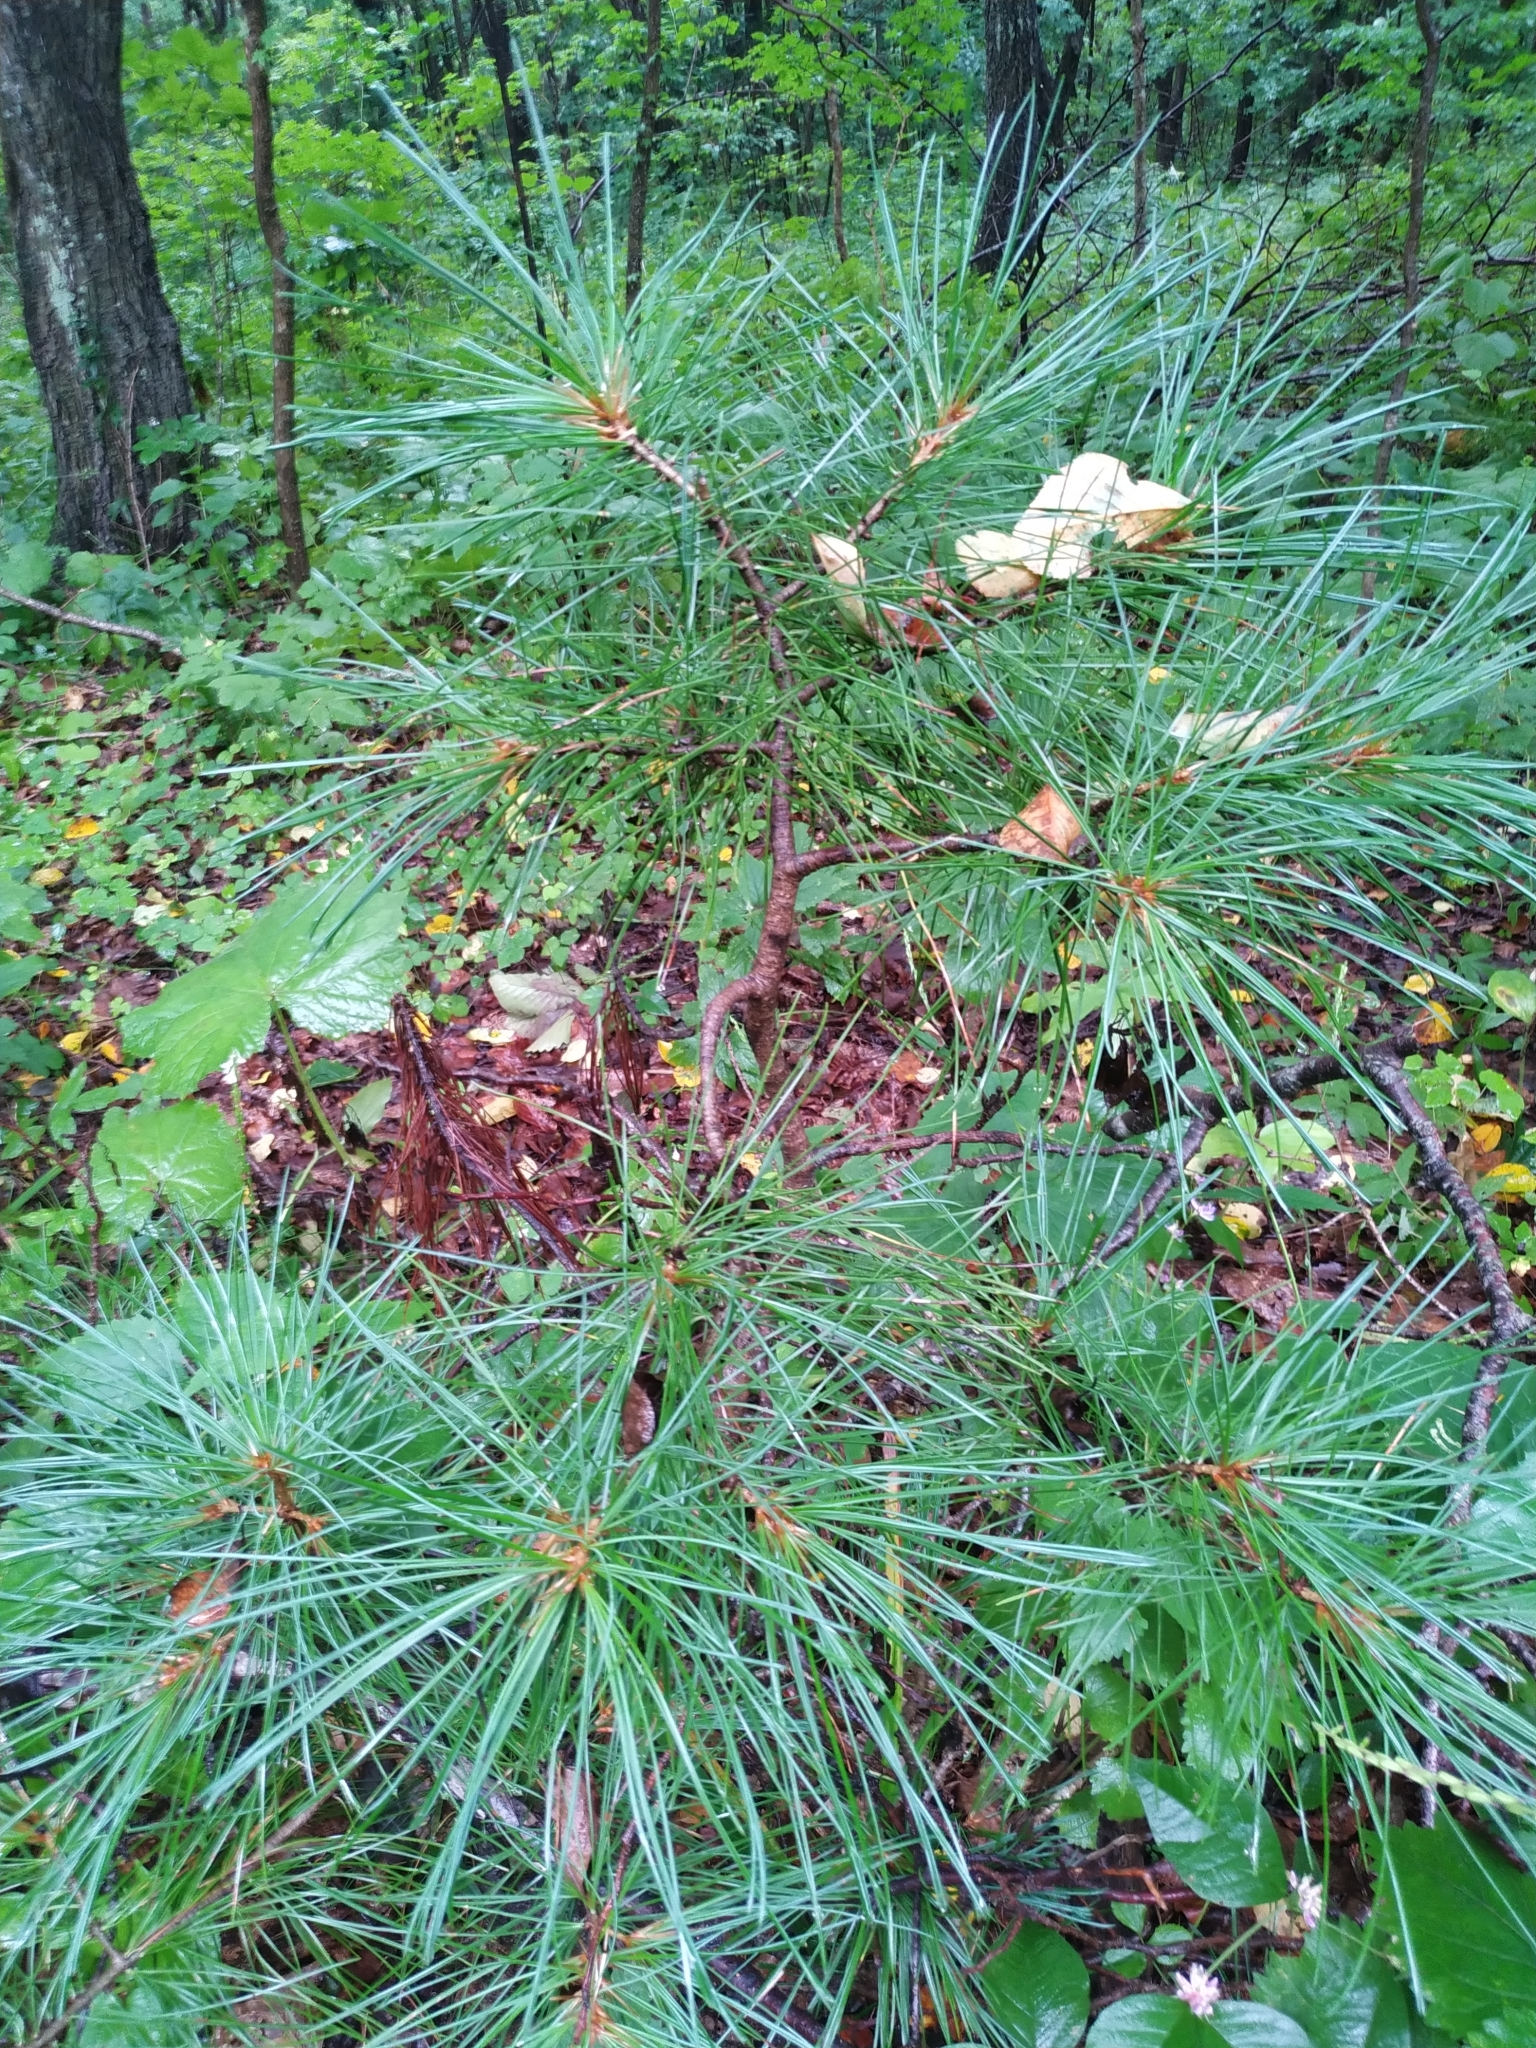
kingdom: Plantae
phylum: Tracheophyta
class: Pinopsida
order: Pinales
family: Pinaceae
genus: Pinus
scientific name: Pinus koraiensis
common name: Korean pine
